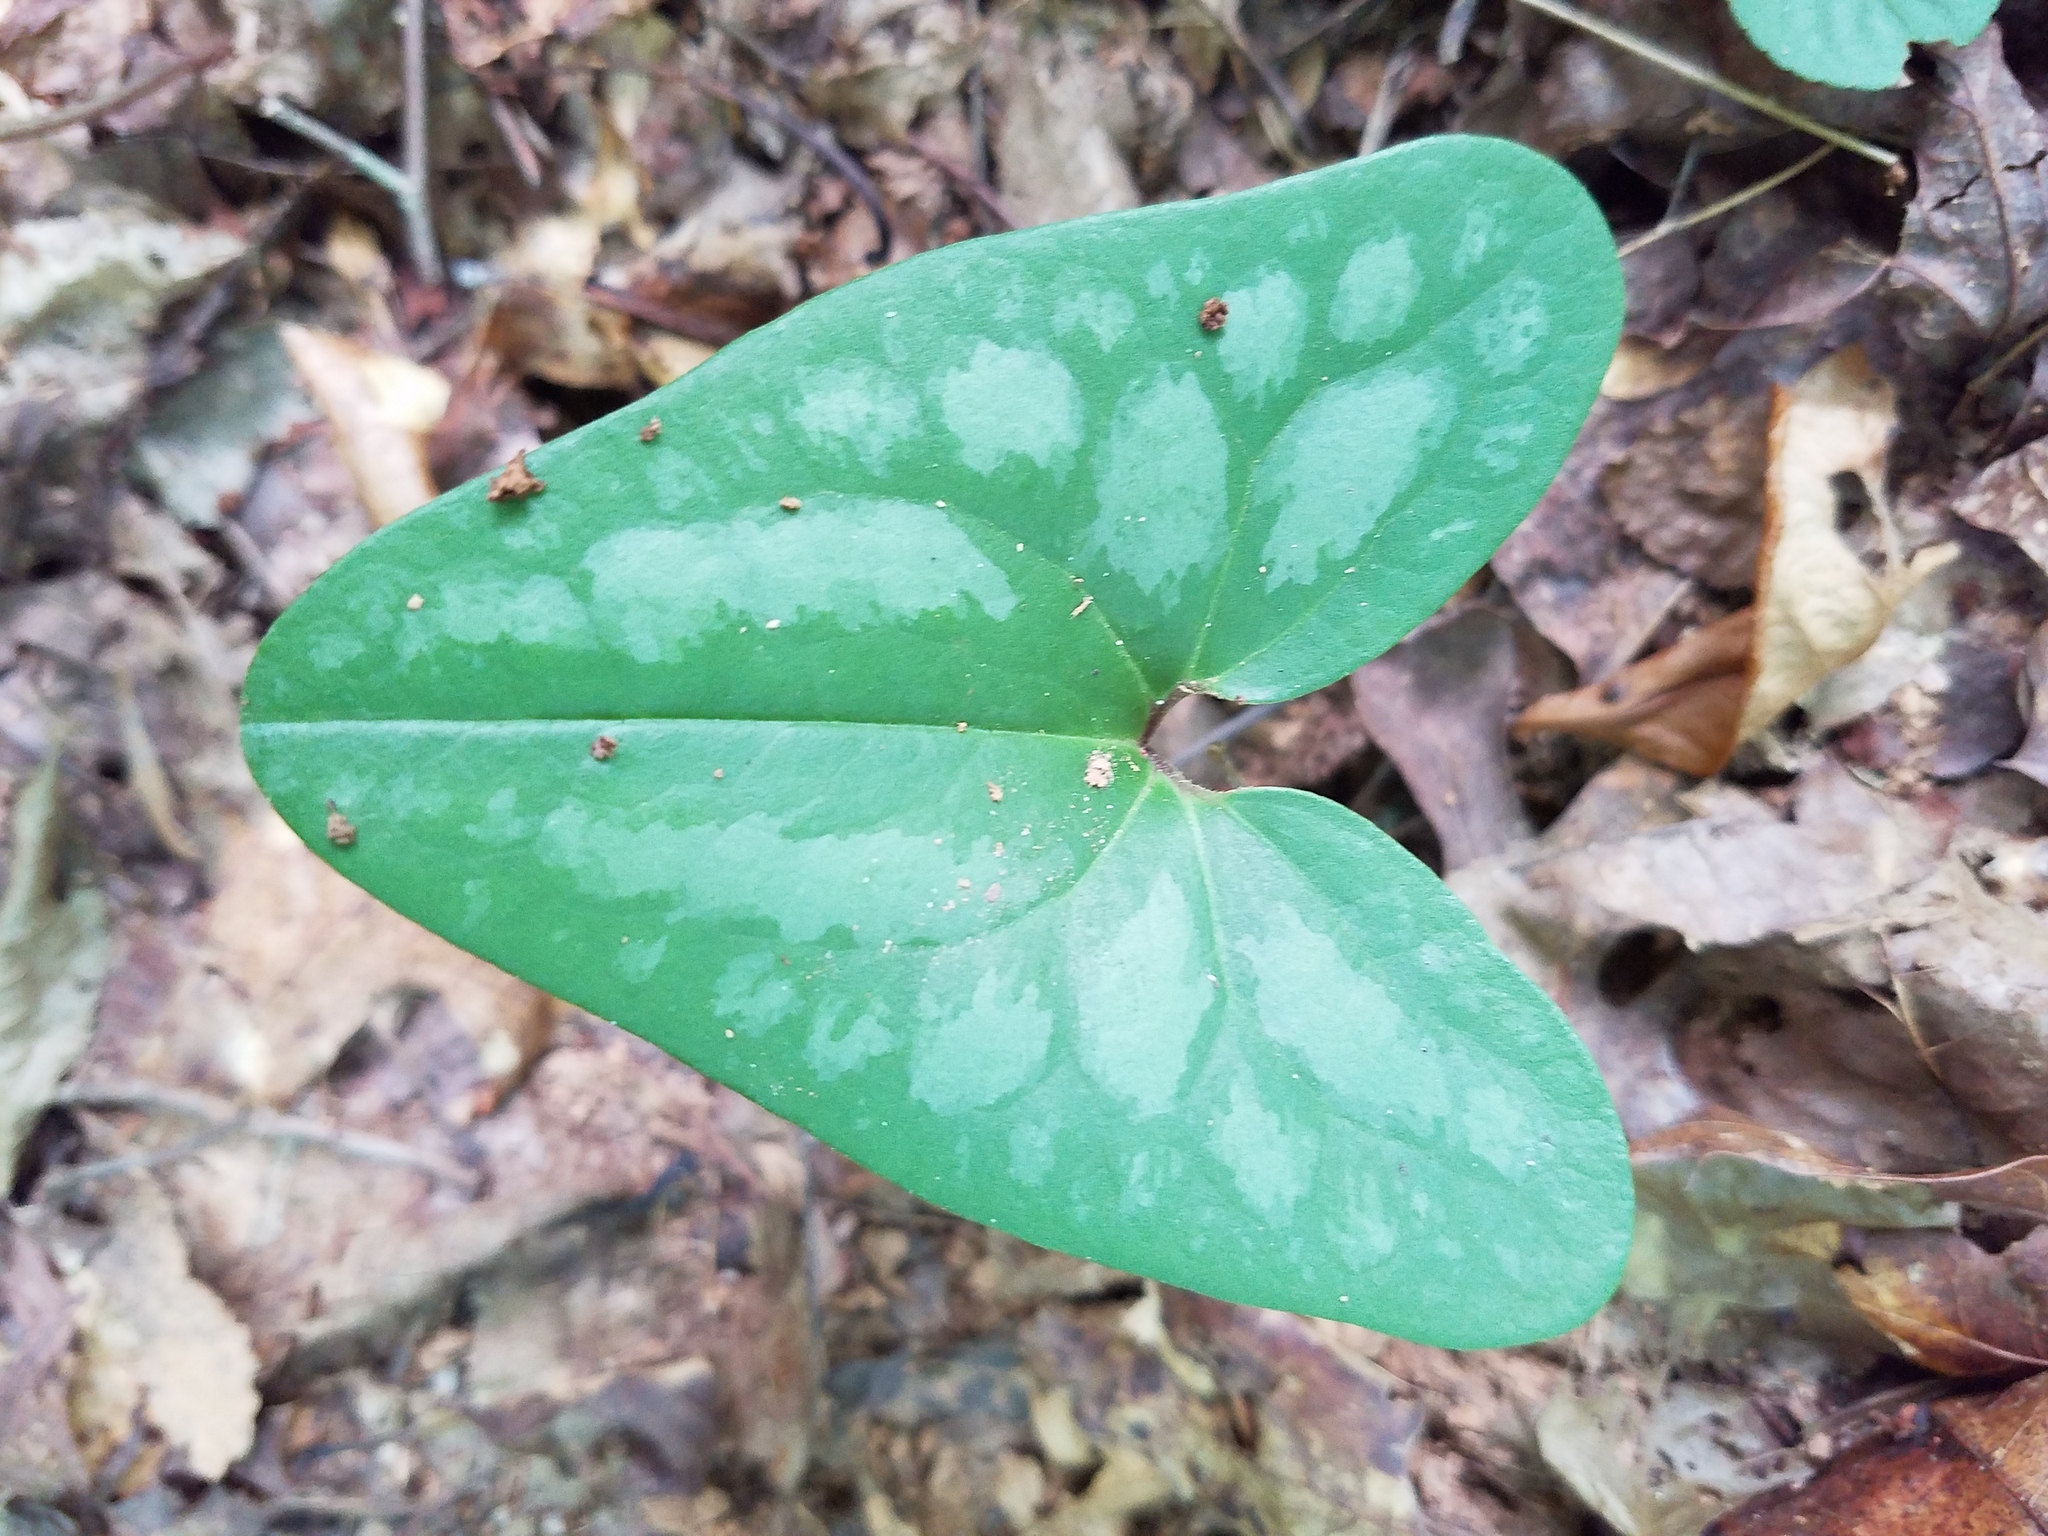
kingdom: Plantae
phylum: Tracheophyta
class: Magnoliopsida
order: Piperales
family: Aristolochiaceae
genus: Hexastylis
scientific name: Hexastylis arifolia
